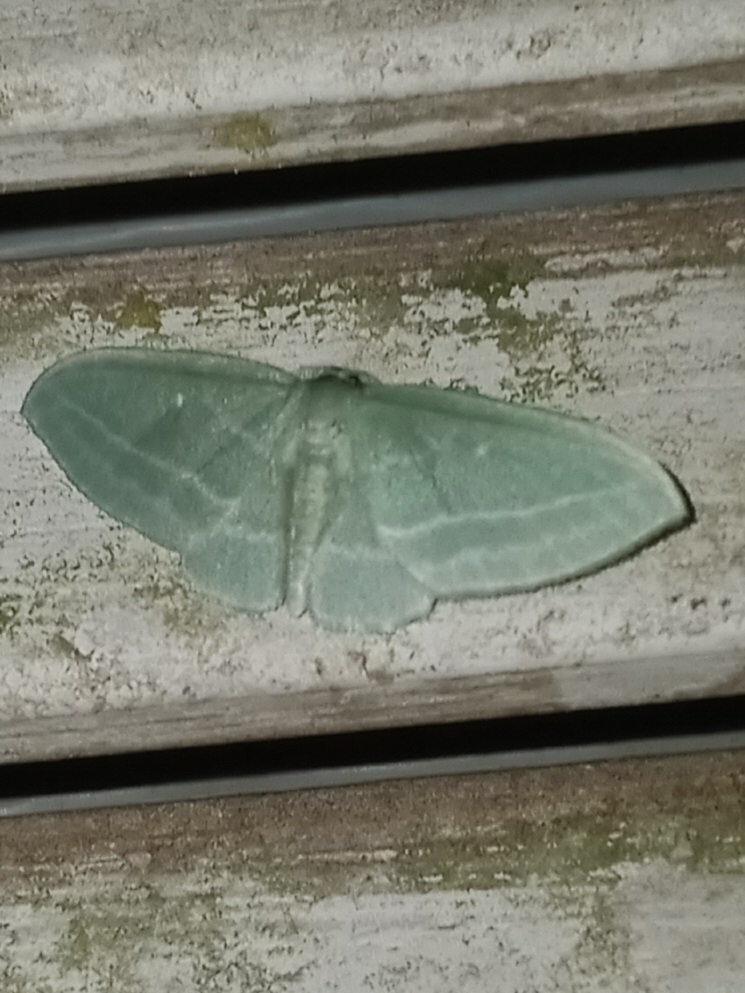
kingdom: Animalia
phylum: Arthropoda
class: Insecta
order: Lepidoptera
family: Geometridae
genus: Dyspteris
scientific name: Dyspteris abortivaria
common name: Bad-wing
